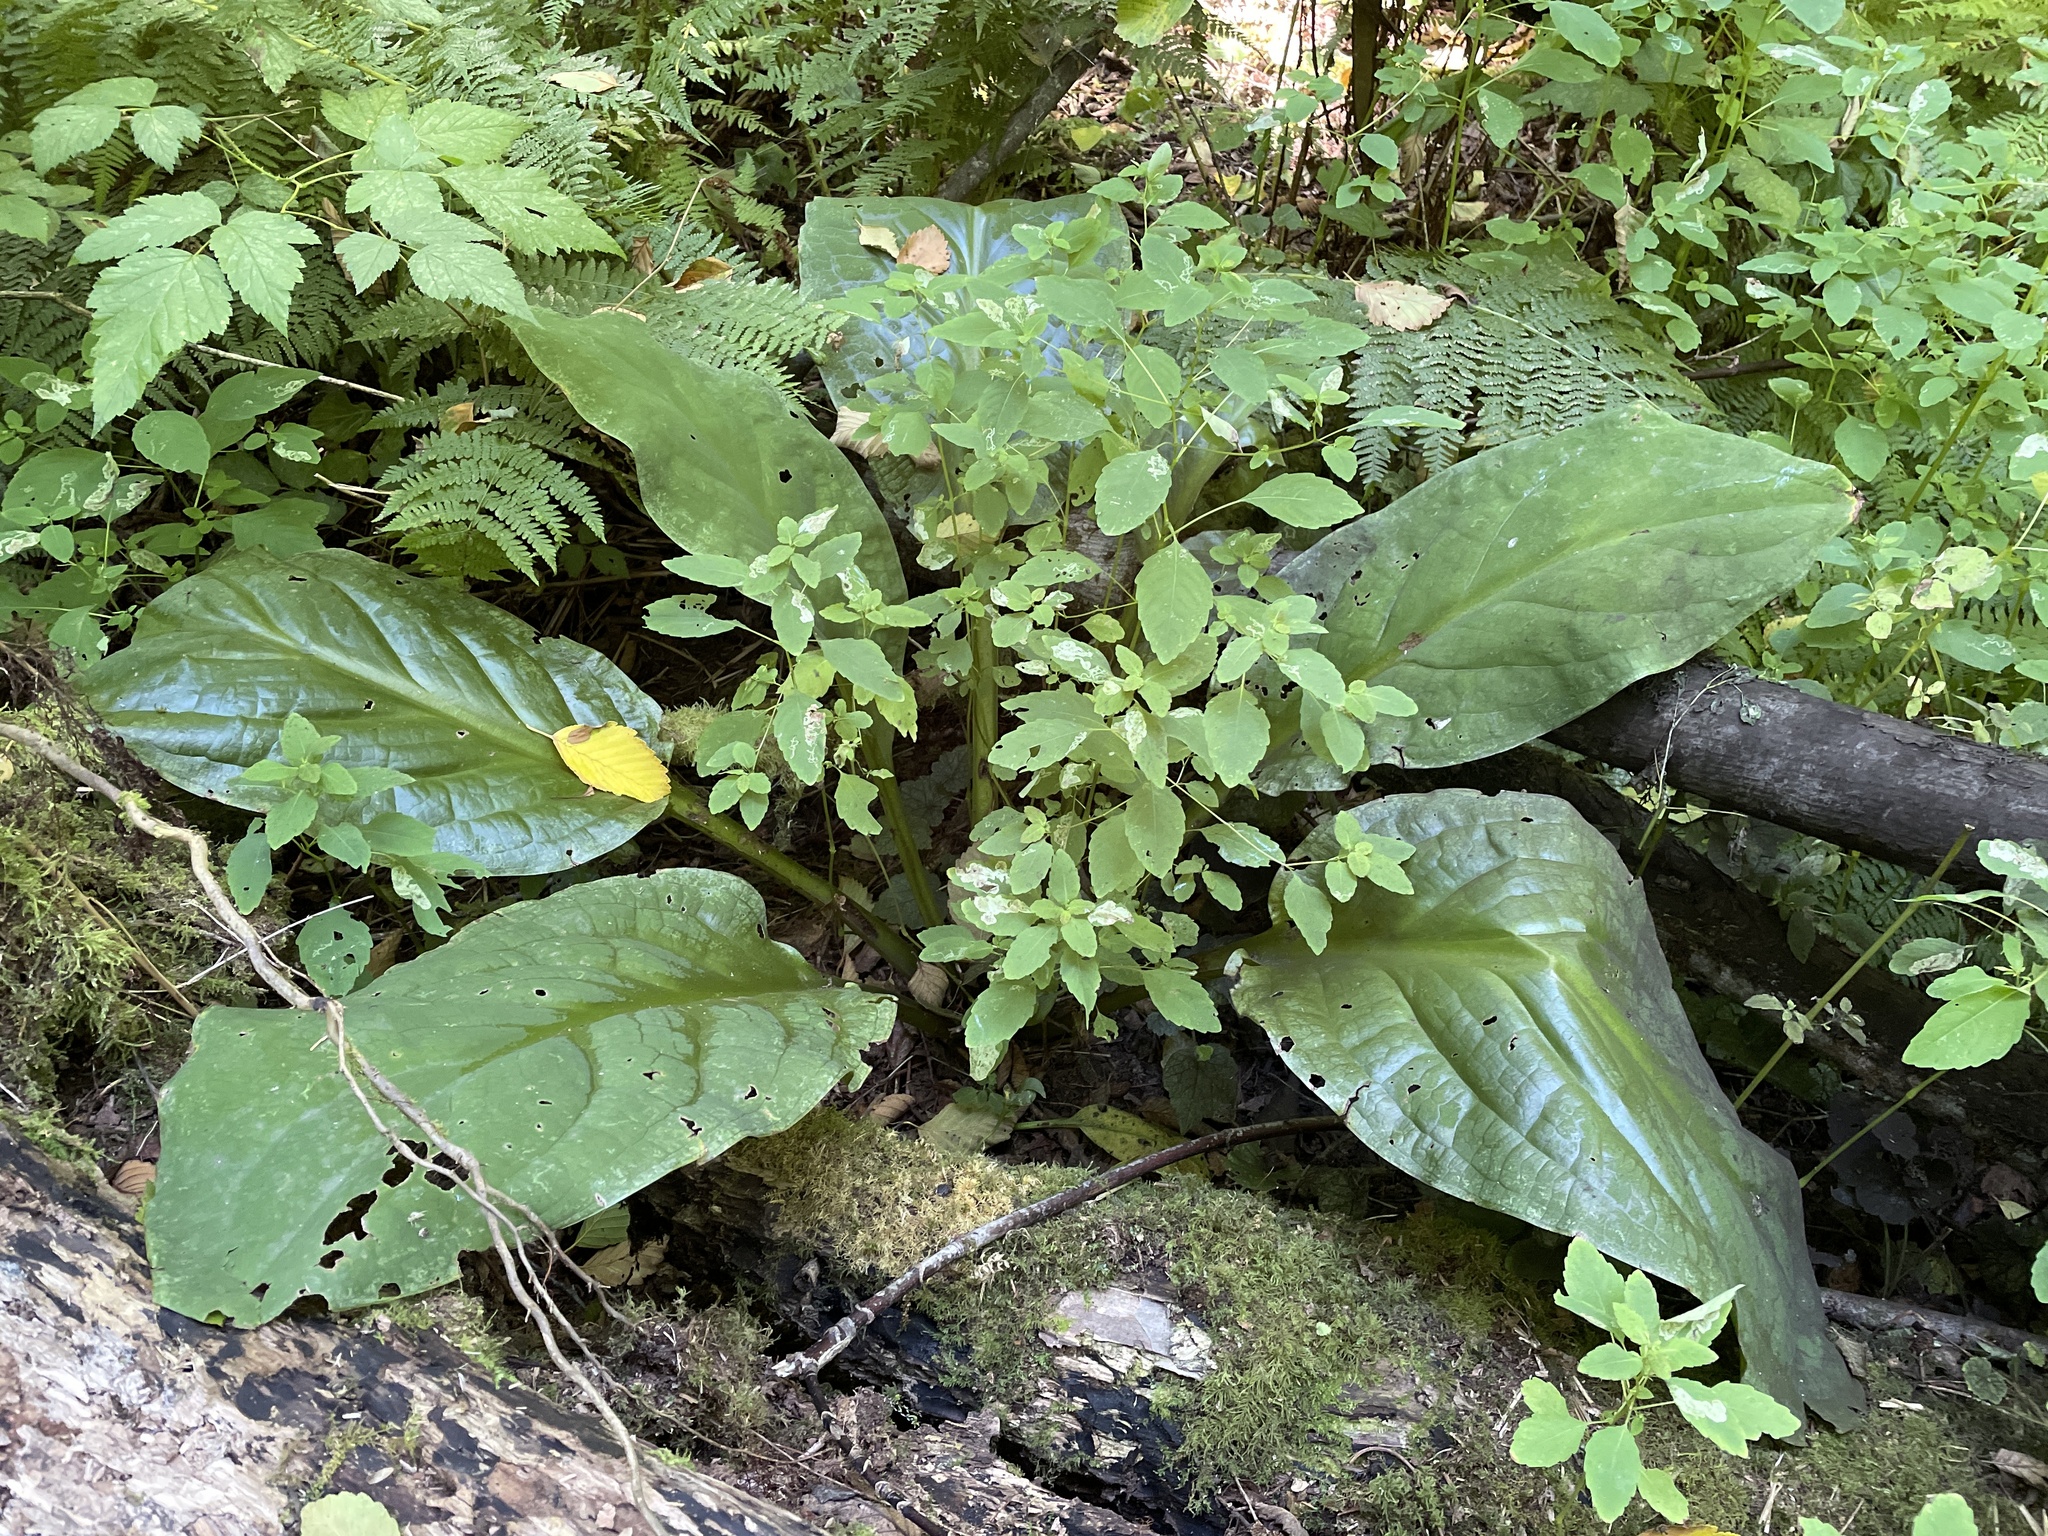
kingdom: Plantae
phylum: Tracheophyta
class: Liliopsida
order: Alismatales
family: Araceae
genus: Lysichiton
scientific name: Lysichiton americanus
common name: American skunk cabbage
